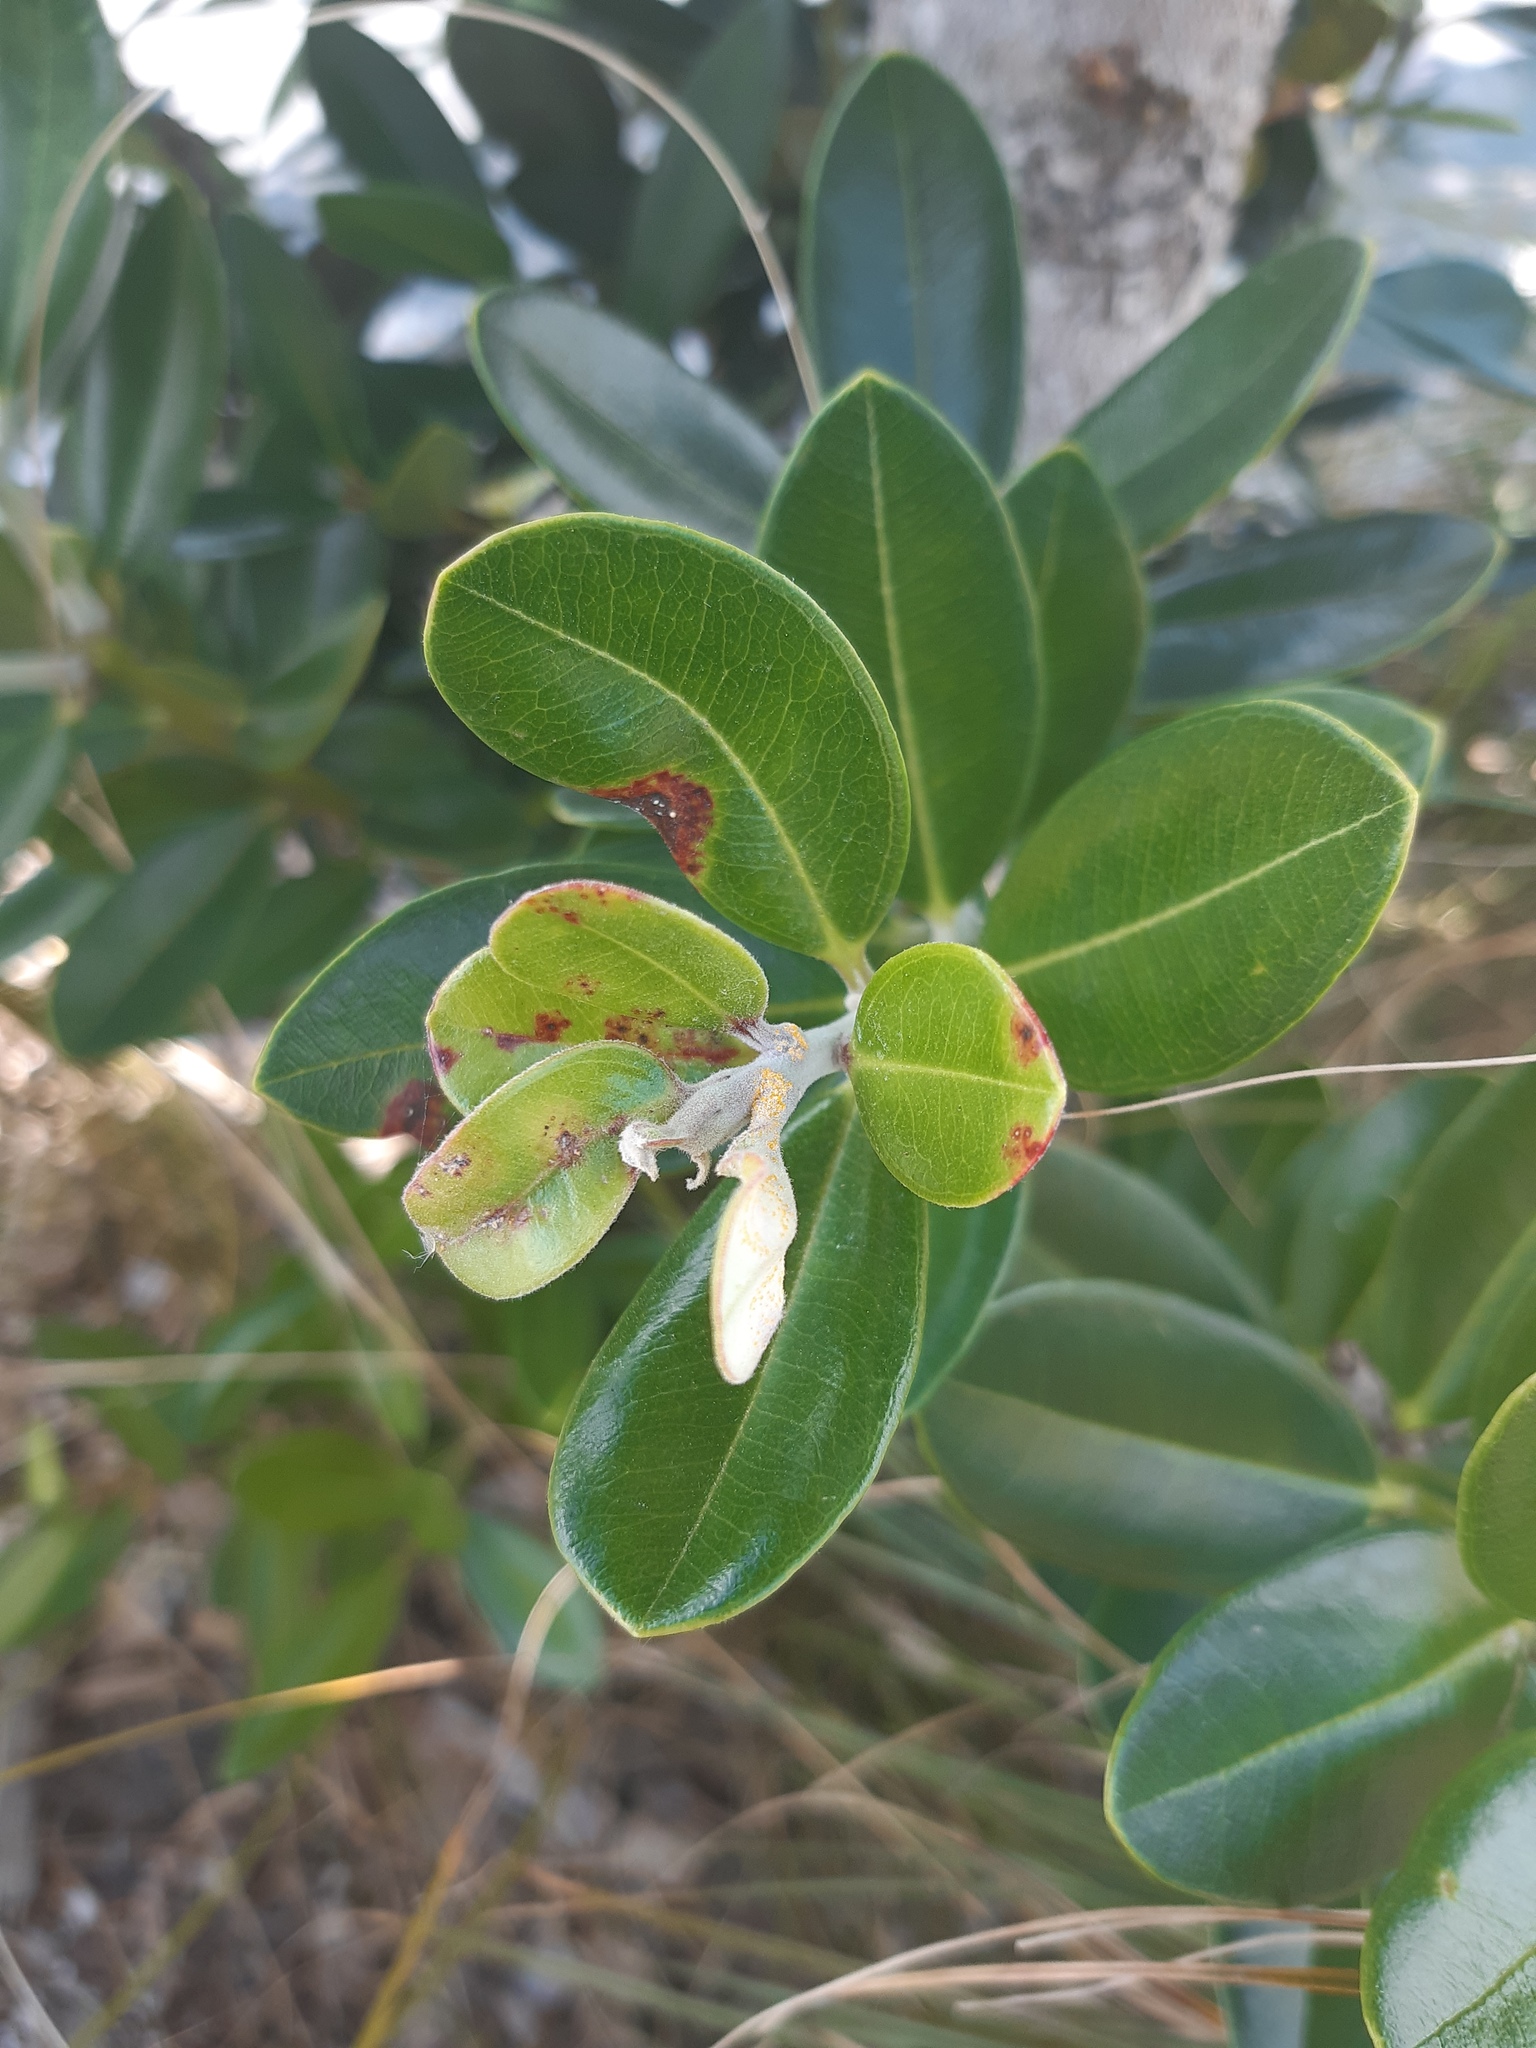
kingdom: Fungi
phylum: Basidiomycota
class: Pucciniomycetes
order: Pucciniales
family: Sphaerophragmiaceae
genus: Austropuccinia
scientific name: Austropuccinia psidii
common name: Myrtle rust
